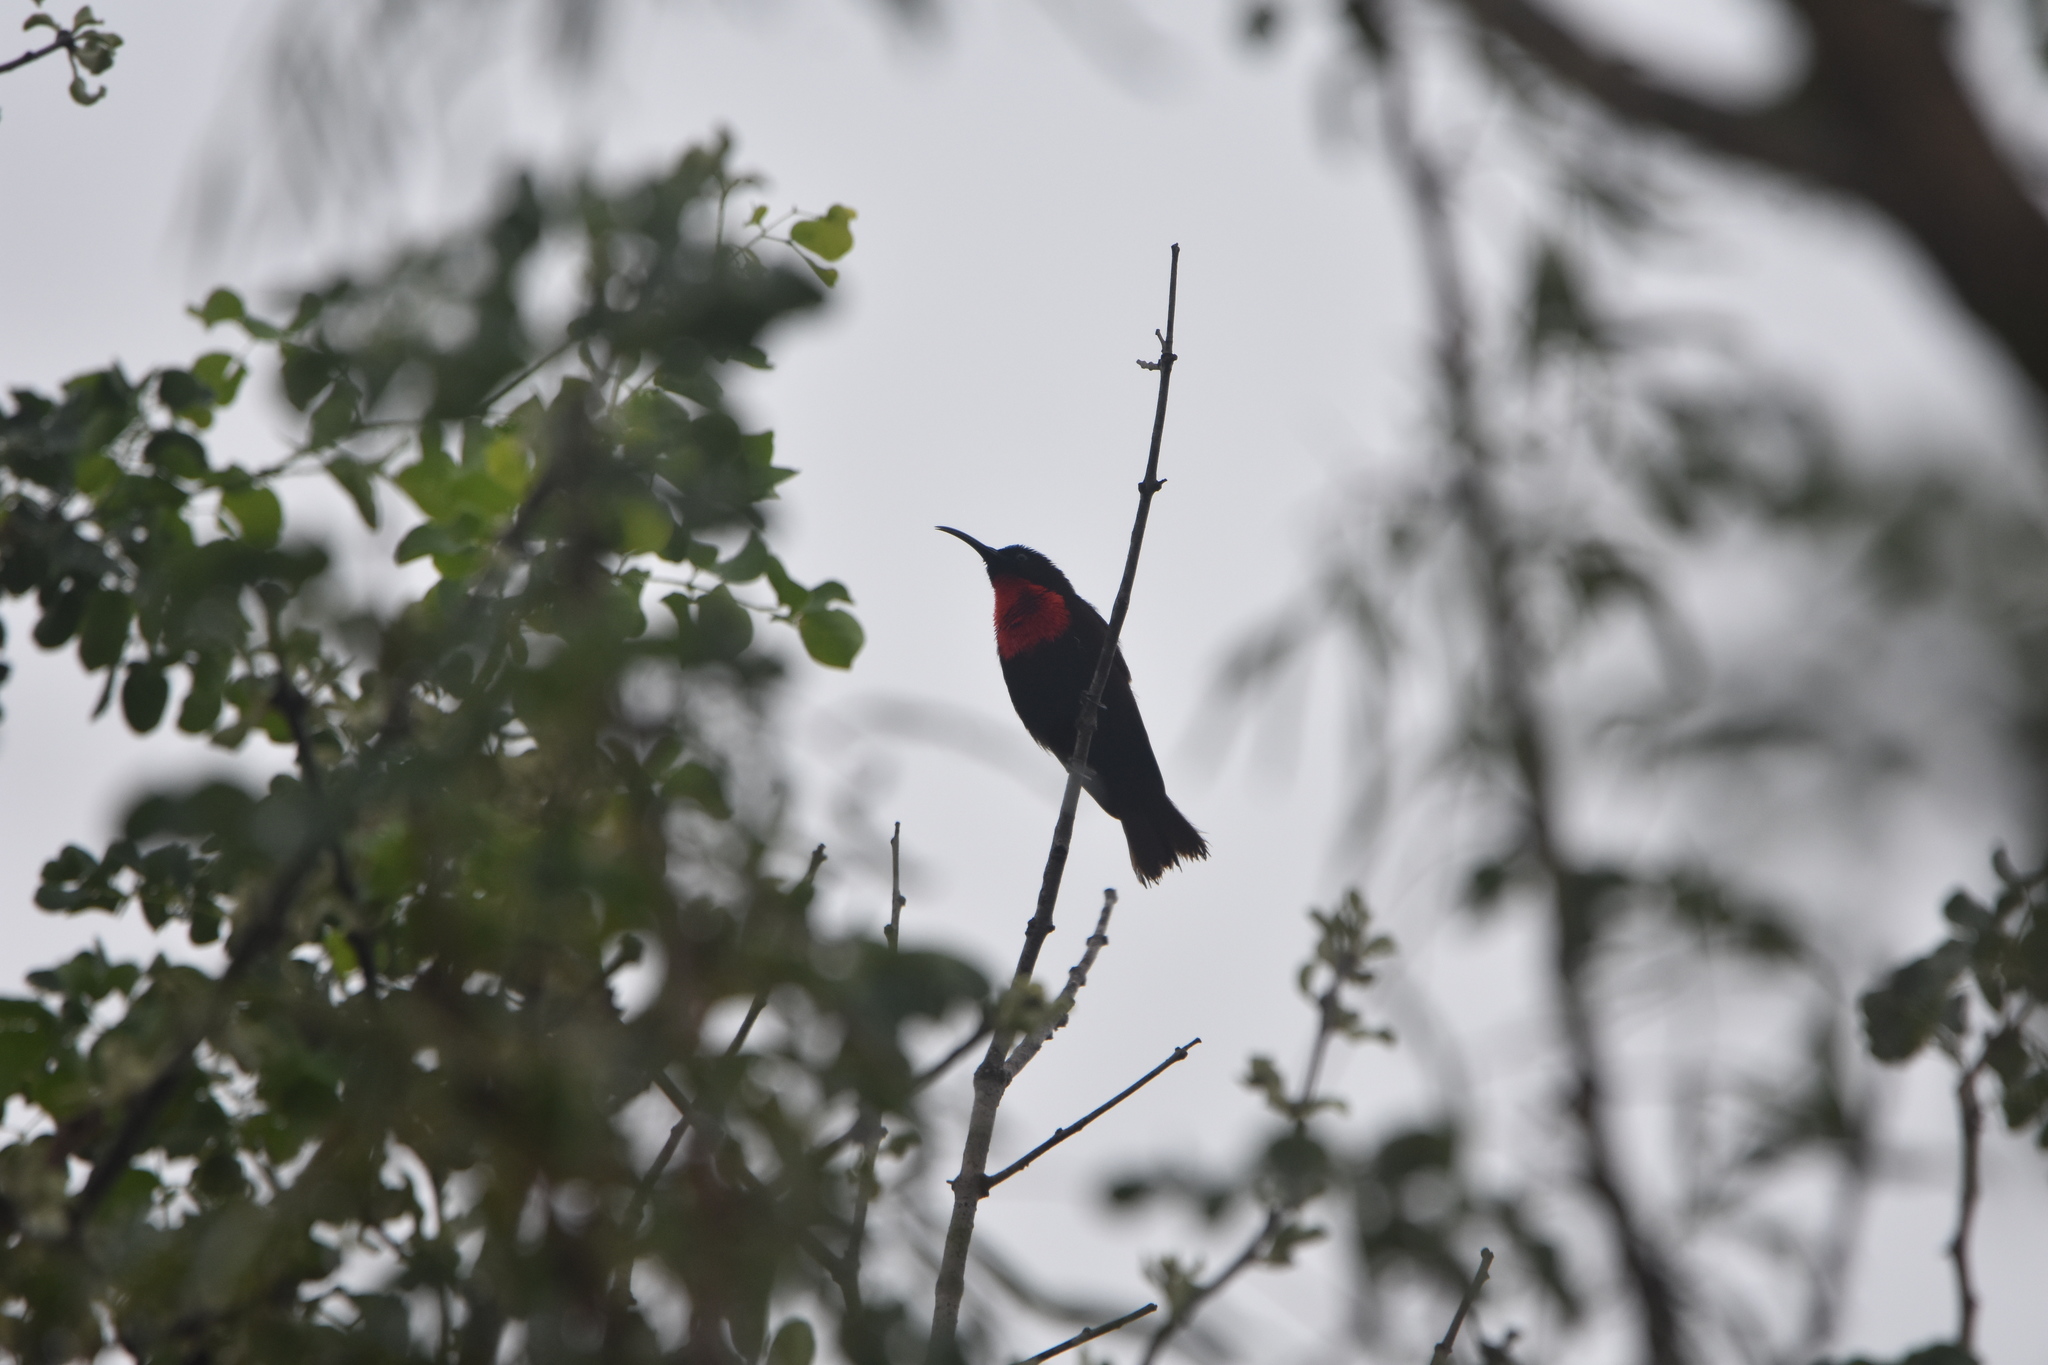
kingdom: Animalia
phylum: Chordata
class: Aves
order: Passeriformes
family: Nectariniidae
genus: Chalcomitra
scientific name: Chalcomitra senegalensis
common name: Scarlet-chested sunbird
